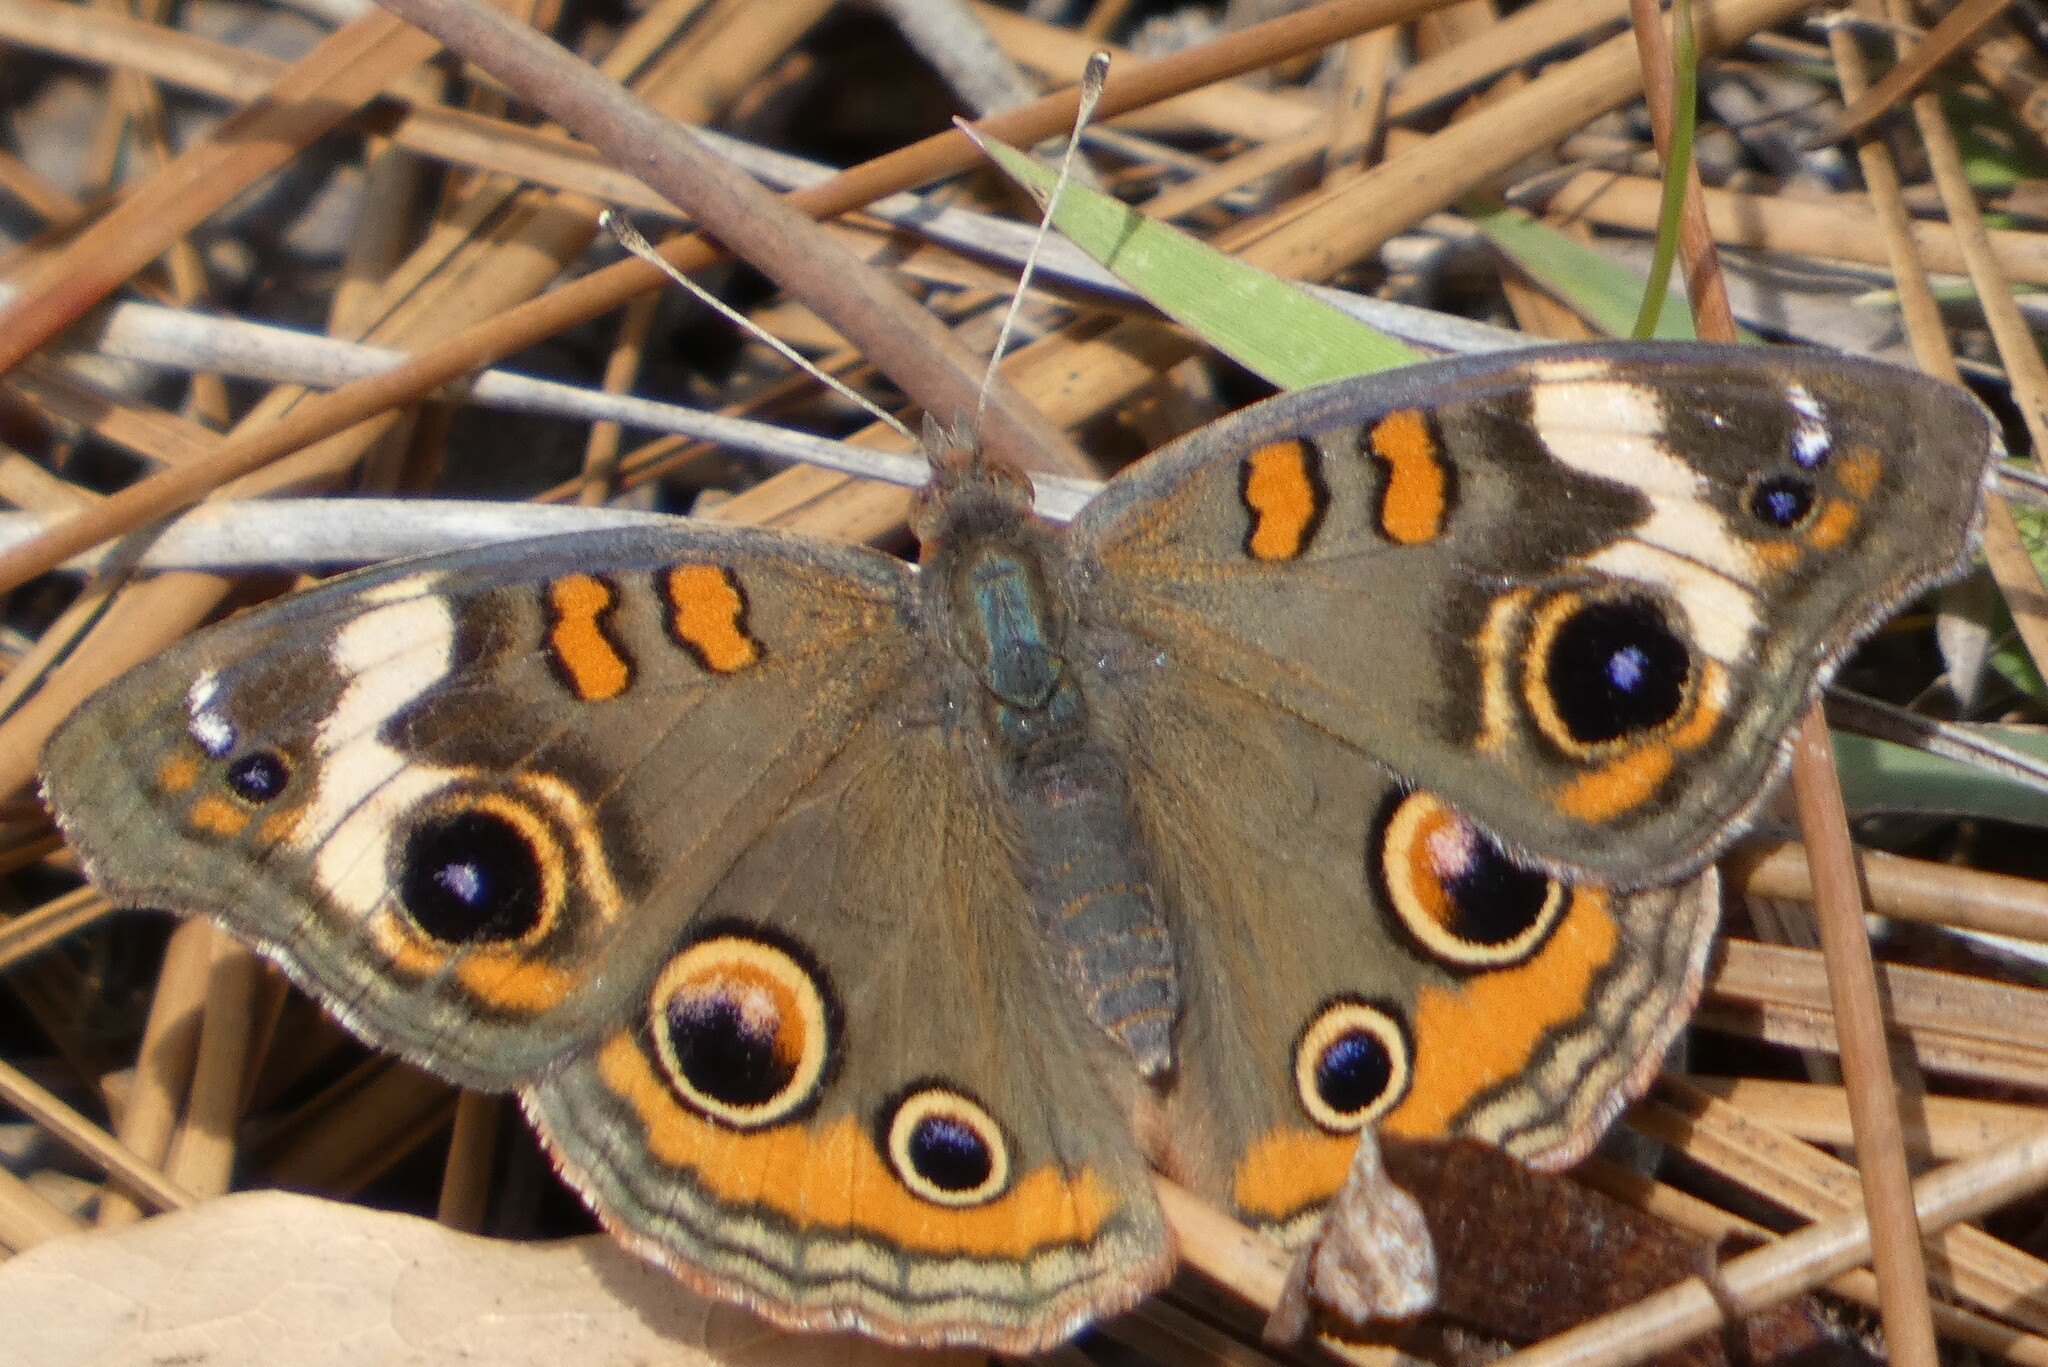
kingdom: Animalia
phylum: Arthropoda
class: Insecta
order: Lepidoptera
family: Nymphalidae
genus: Junonia
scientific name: Junonia coenia
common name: Common buckeye
